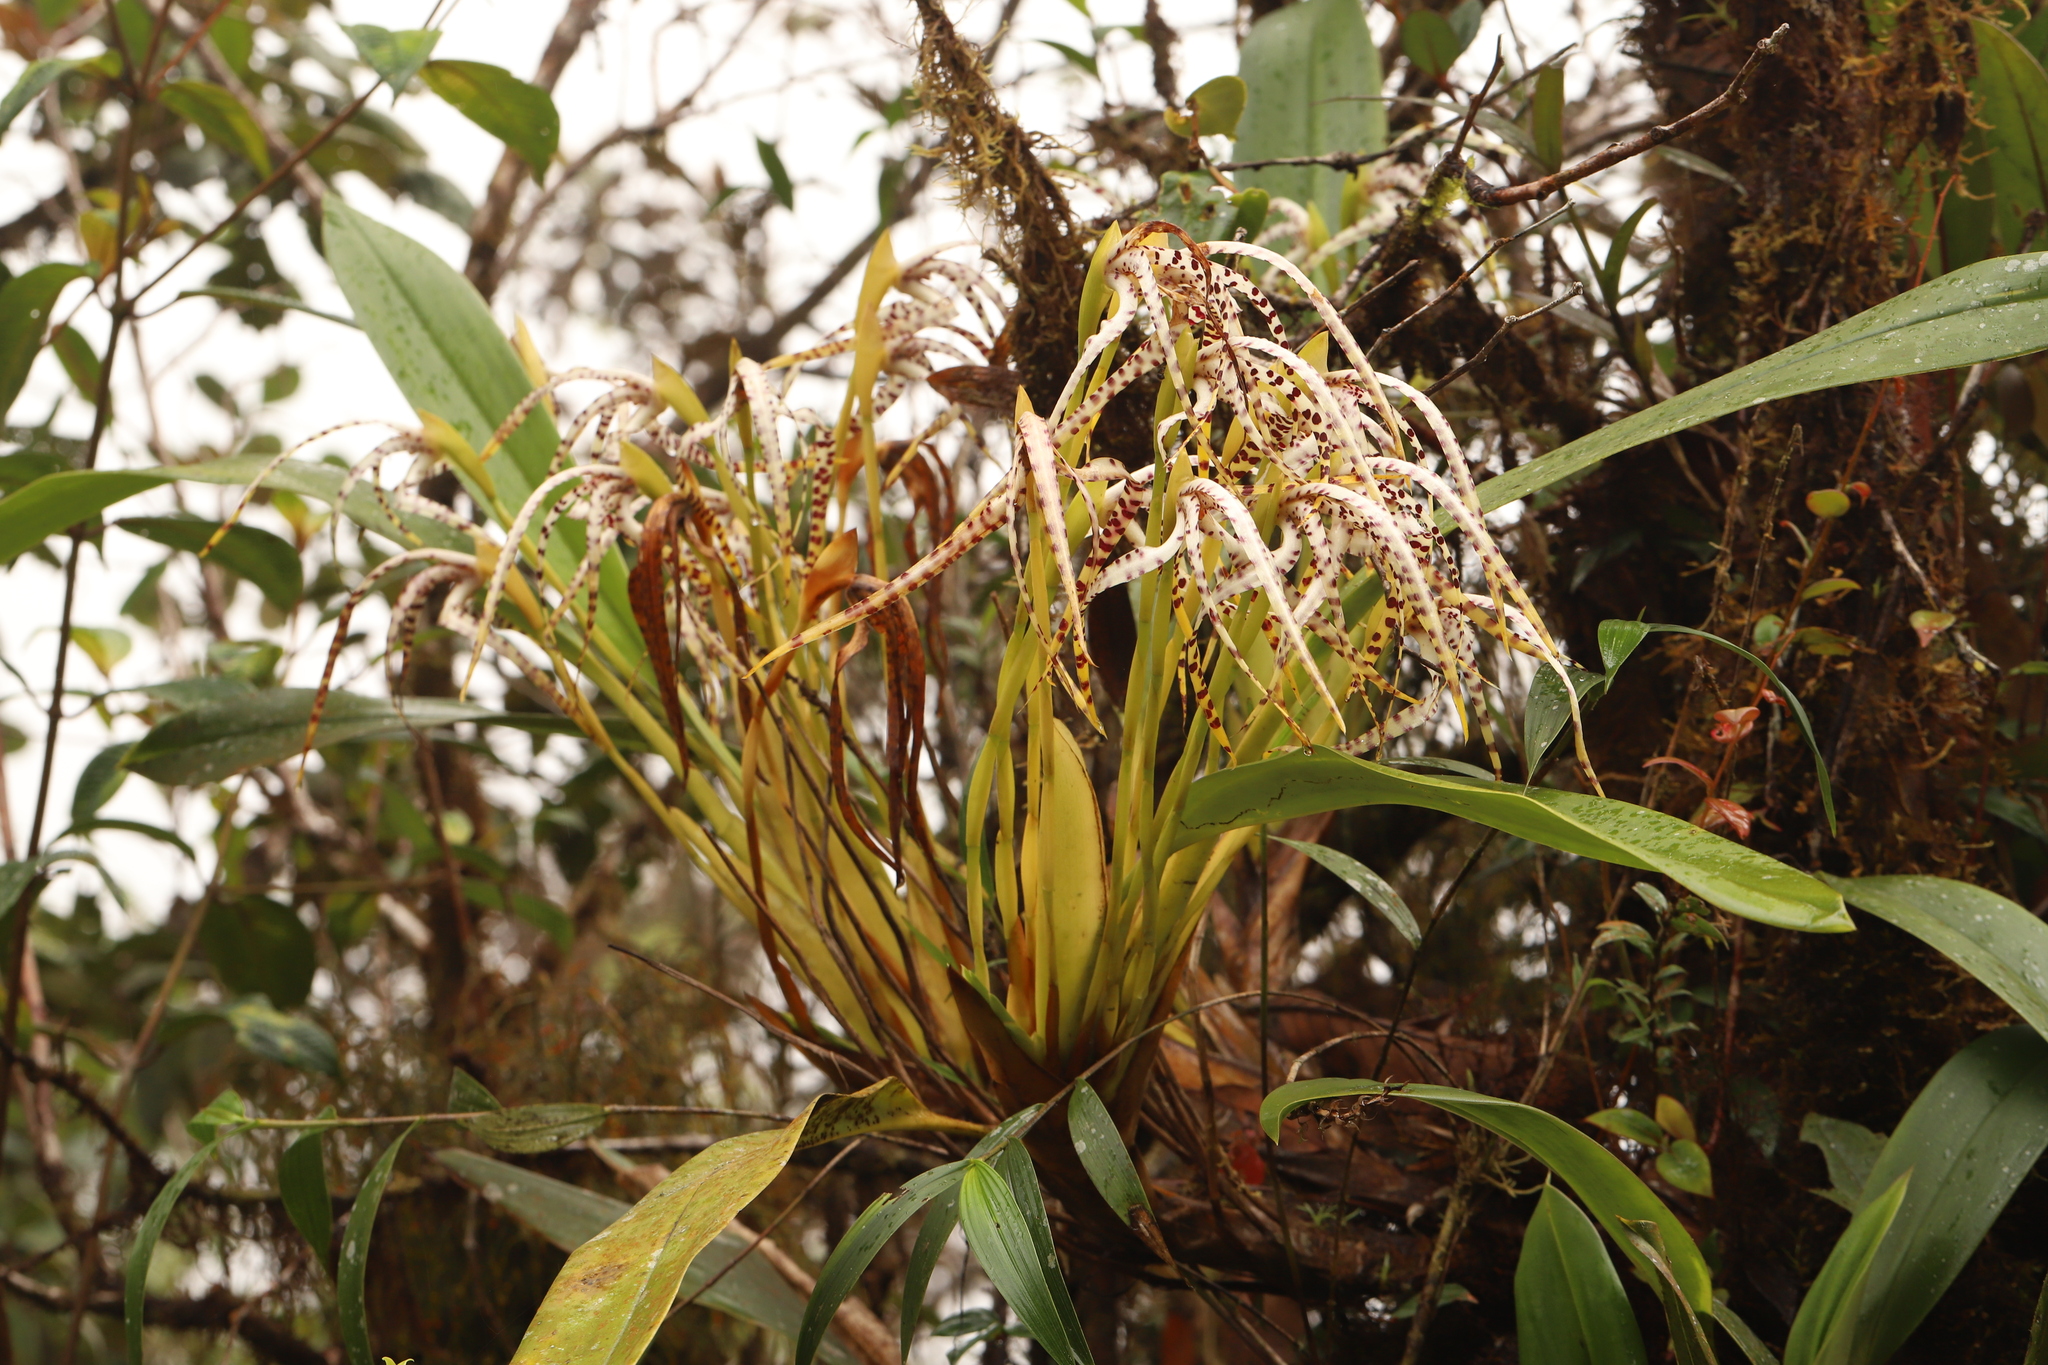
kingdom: Plantae
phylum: Tracheophyta
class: Liliopsida
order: Asparagales
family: Orchidaceae
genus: Maxillaria
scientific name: Maxillaria speciosa
